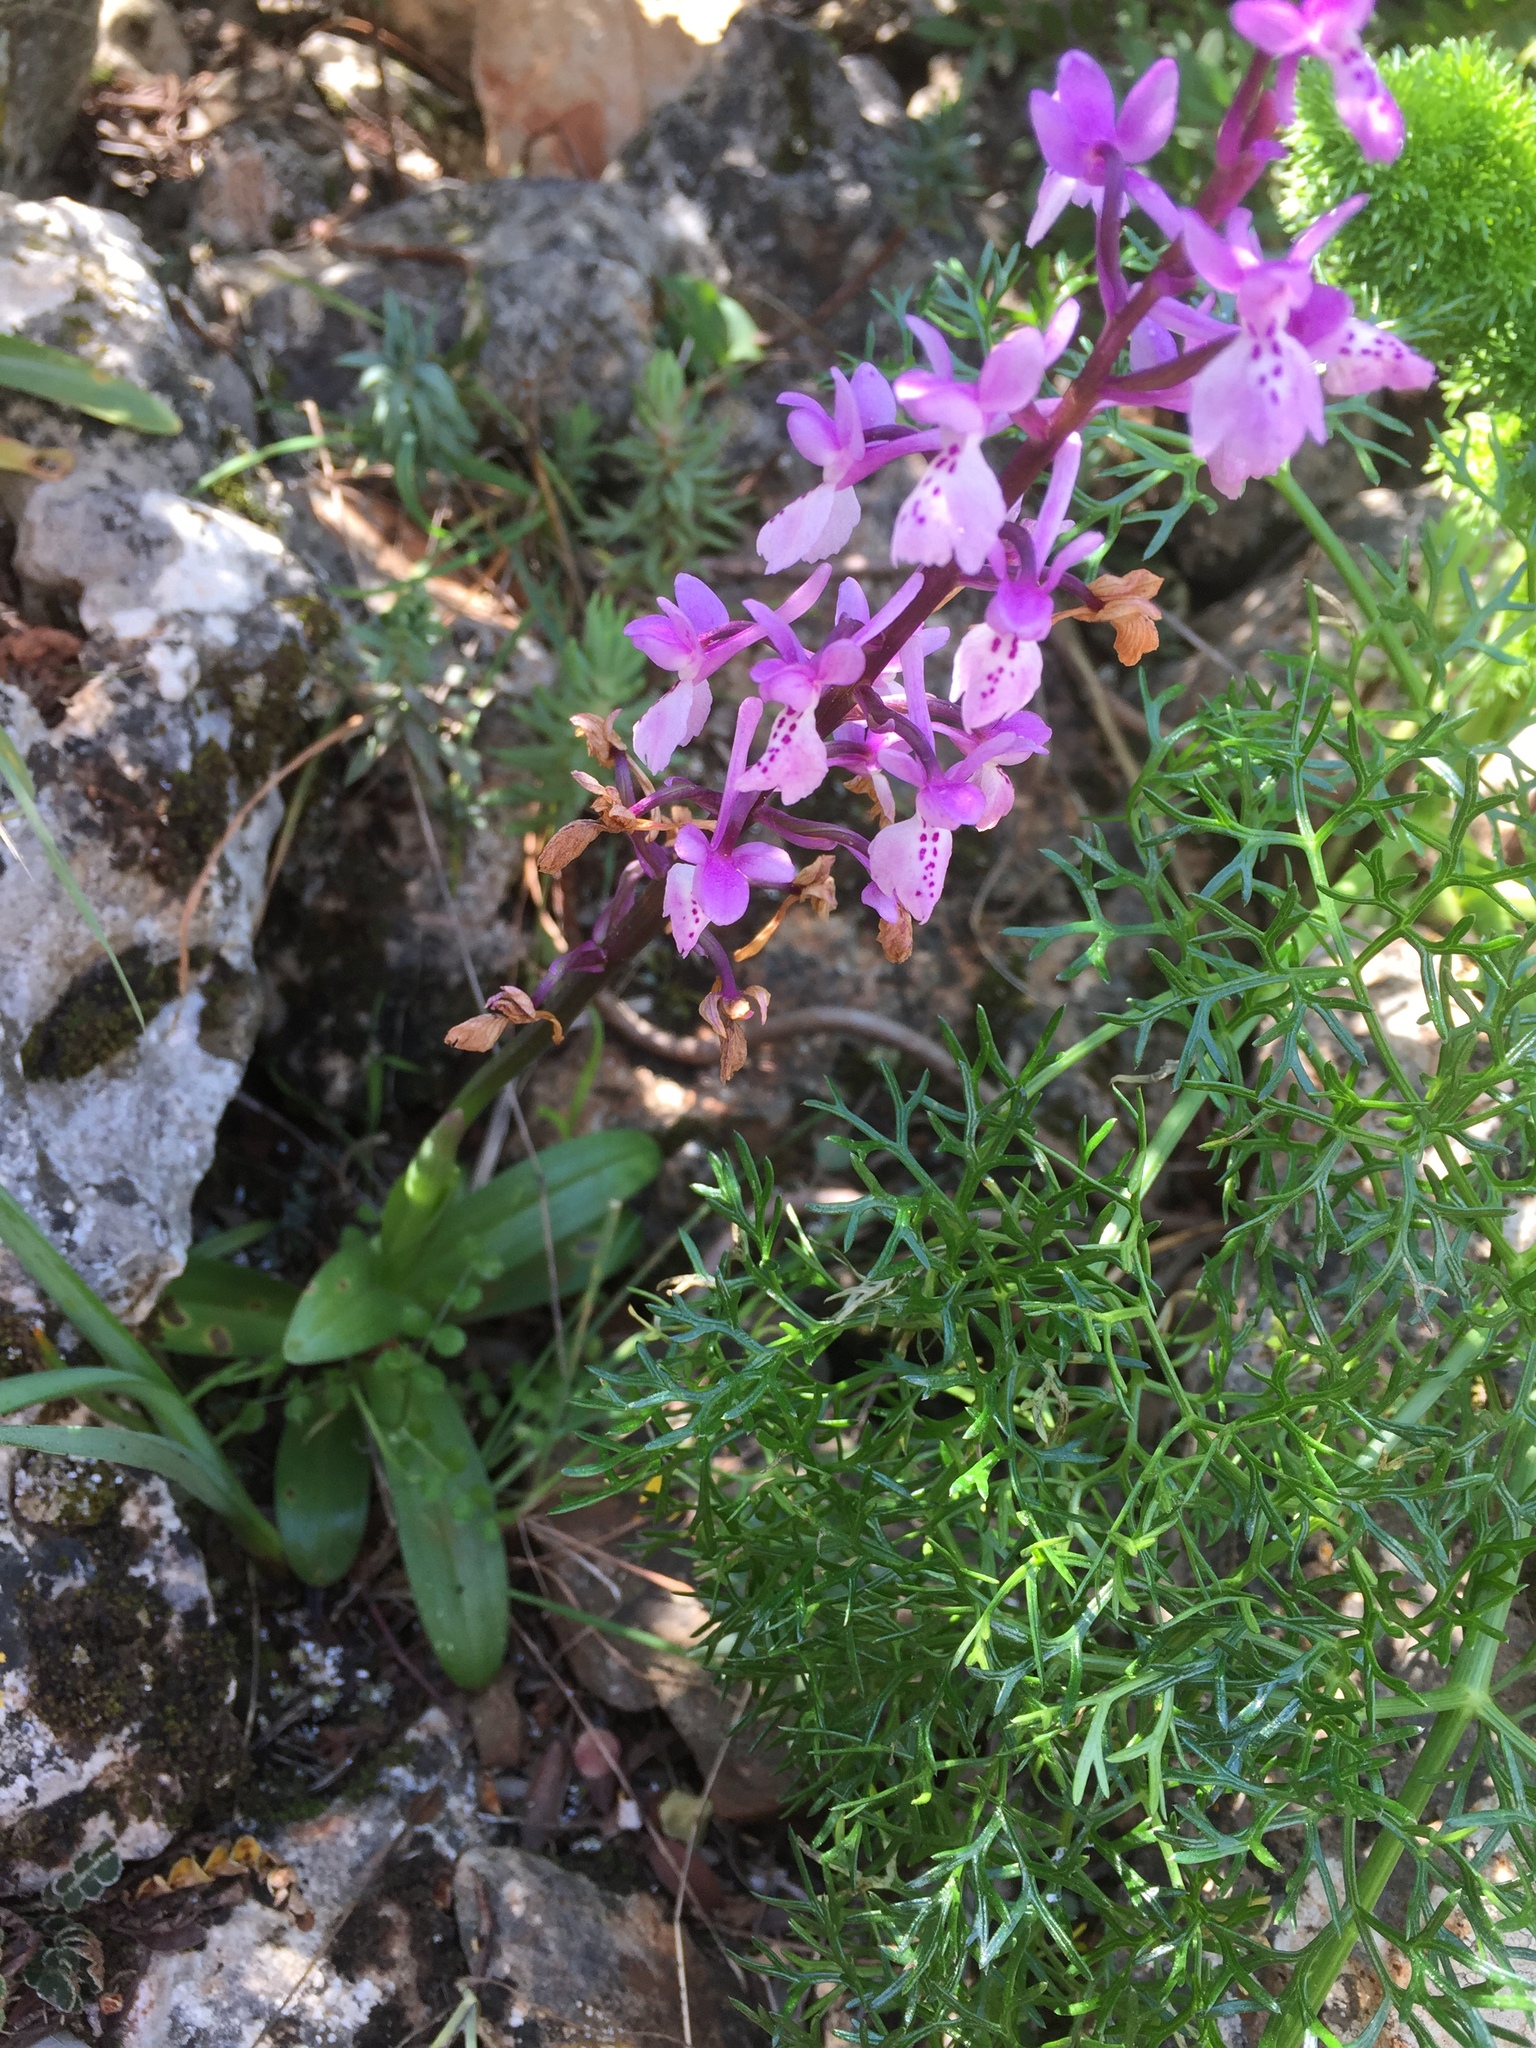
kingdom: Plantae
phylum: Tracheophyta
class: Liliopsida
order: Asparagales
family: Orchidaceae
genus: Orchis
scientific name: Orchis olbiensis
